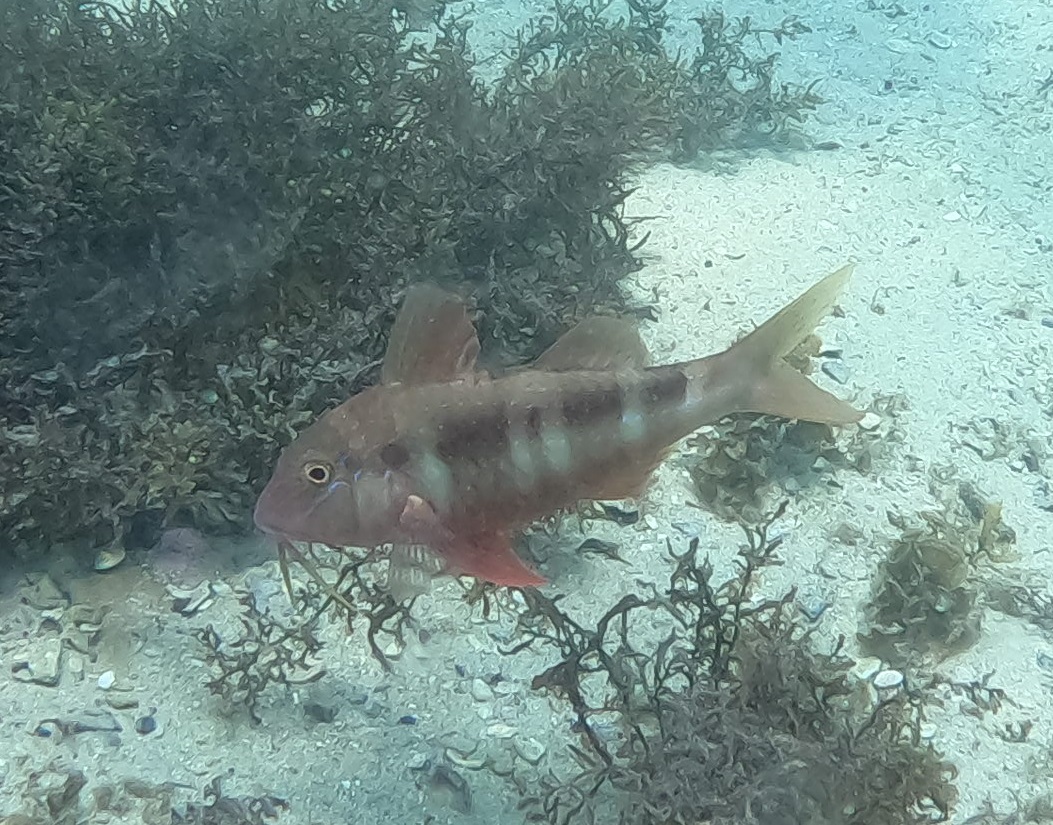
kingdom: Animalia
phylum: Chordata
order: Perciformes
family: Mullidae
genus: Upeneichthys
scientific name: Upeneichthys lineatus
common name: Red mullet
